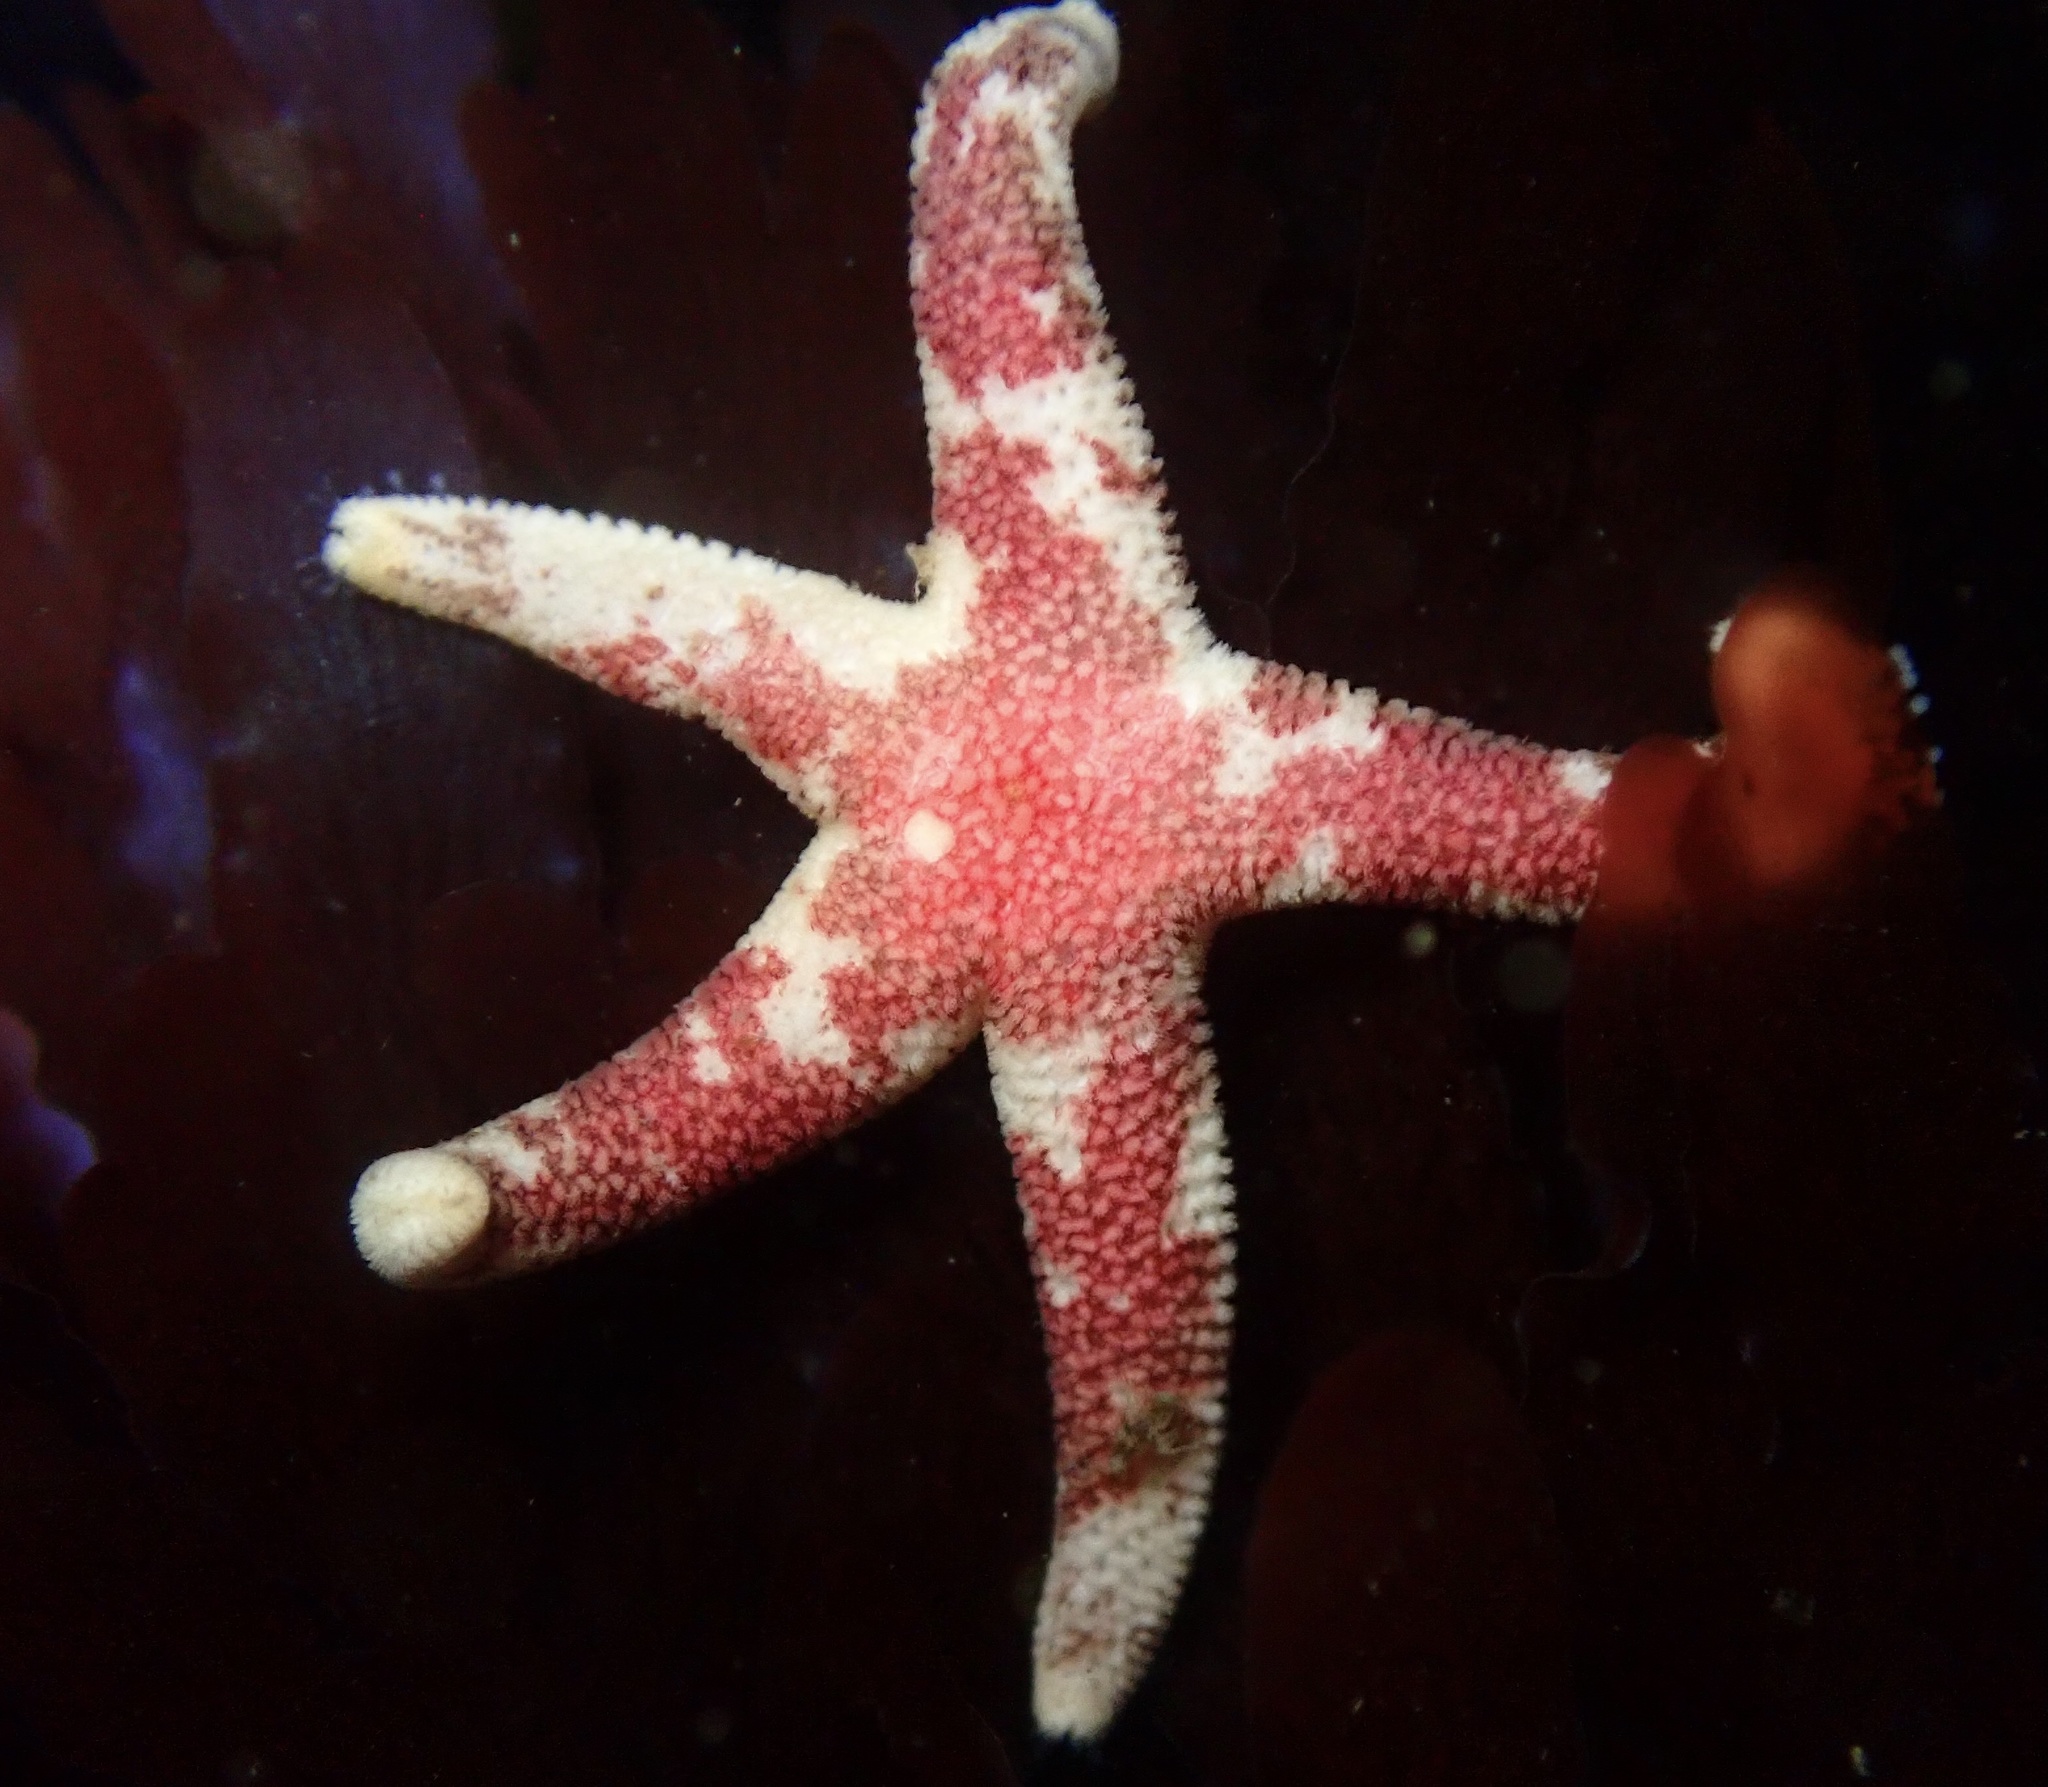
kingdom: Animalia
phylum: Echinodermata
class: Asteroidea
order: Spinulosida
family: Echinasteridae
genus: Henricia
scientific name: Henricia pumila
